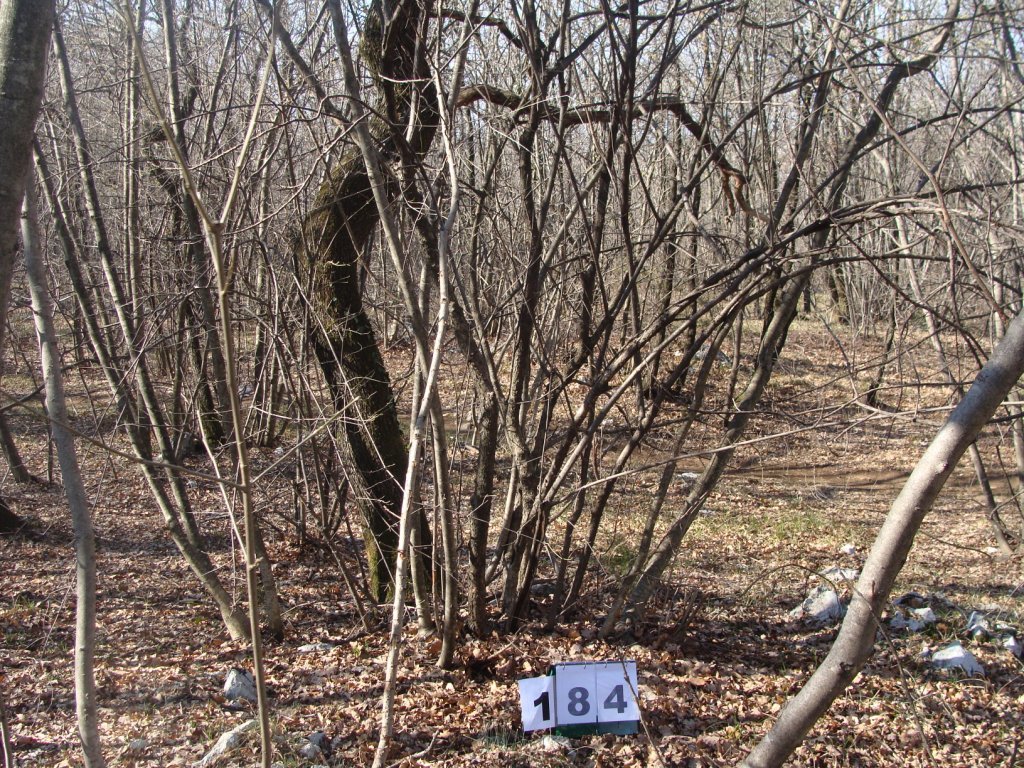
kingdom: Plantae
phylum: Tracheophyta
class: Magnoliopsida
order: Cornales
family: Cornaceae
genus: Cornus
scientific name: Cornus mas
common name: Cornelian-cherry
